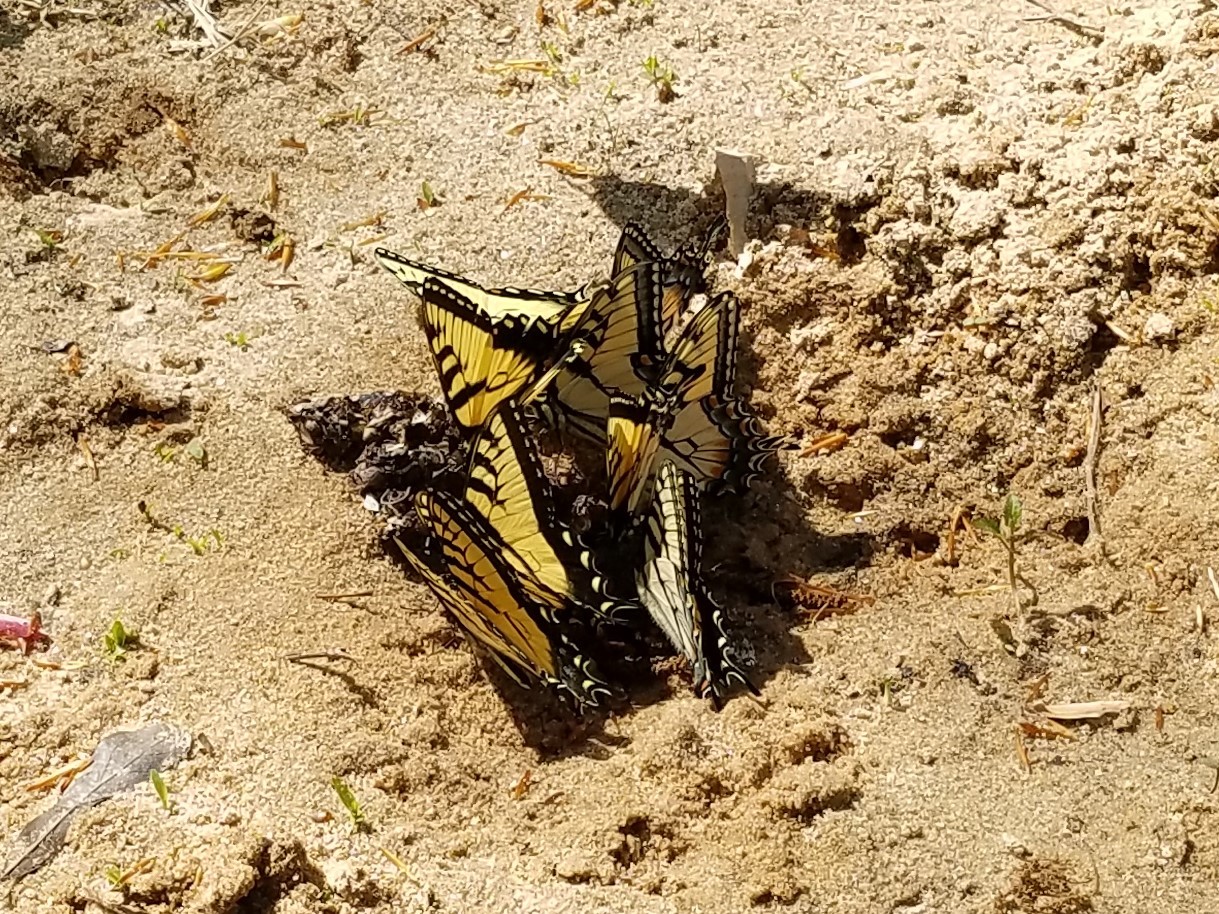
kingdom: Animalia
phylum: Arthropoda
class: Insecta
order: Lepidoptera
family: Papilionidae
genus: Papilio
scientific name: Papilio glaucus
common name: Tiger swallowtail
